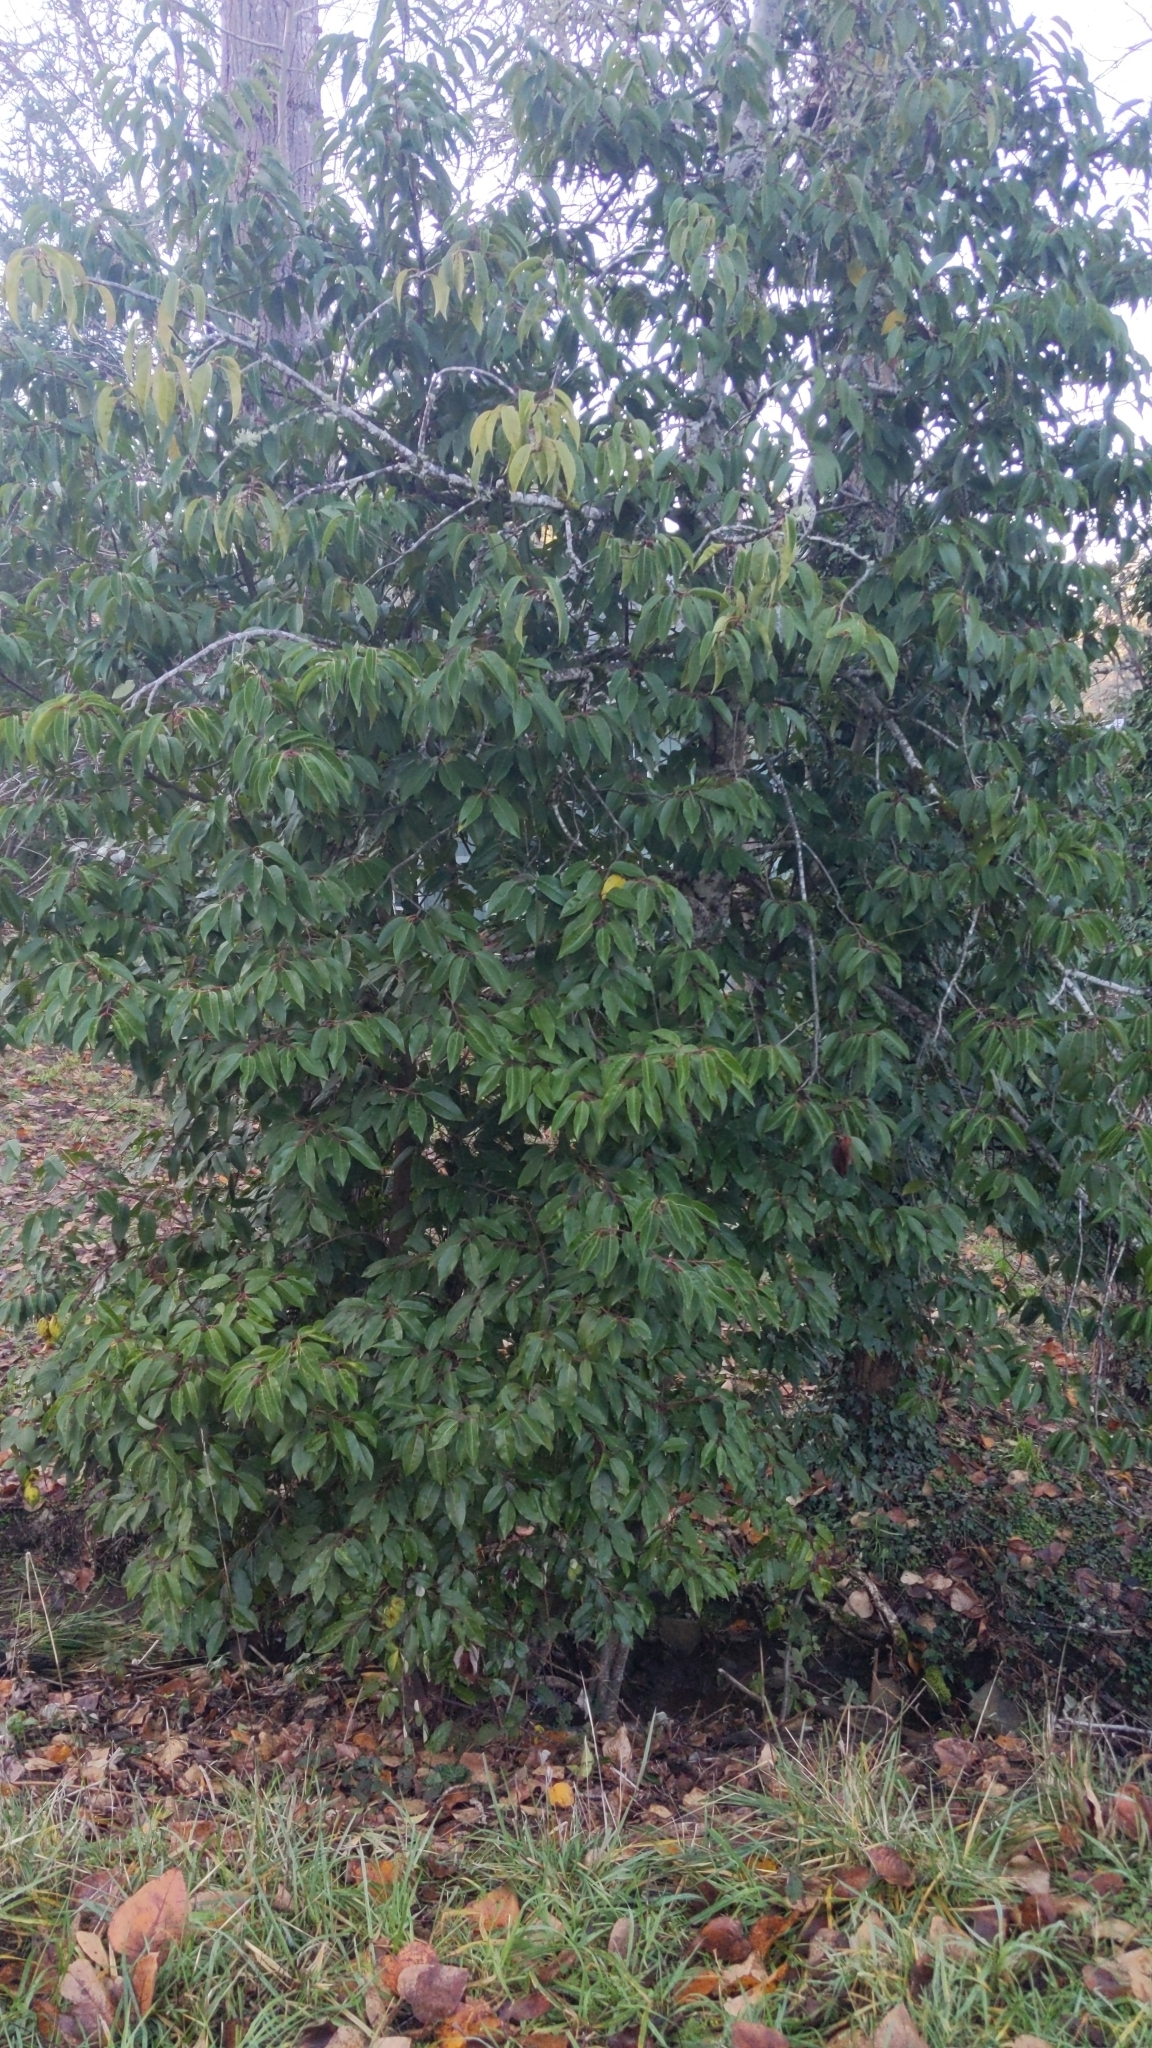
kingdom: Plantae
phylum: Tracheophyta
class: Magnoliopsida
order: Rosales
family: Rosaceae
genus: Prunus
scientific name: Prunus lusitanica
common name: Portugal laurel
